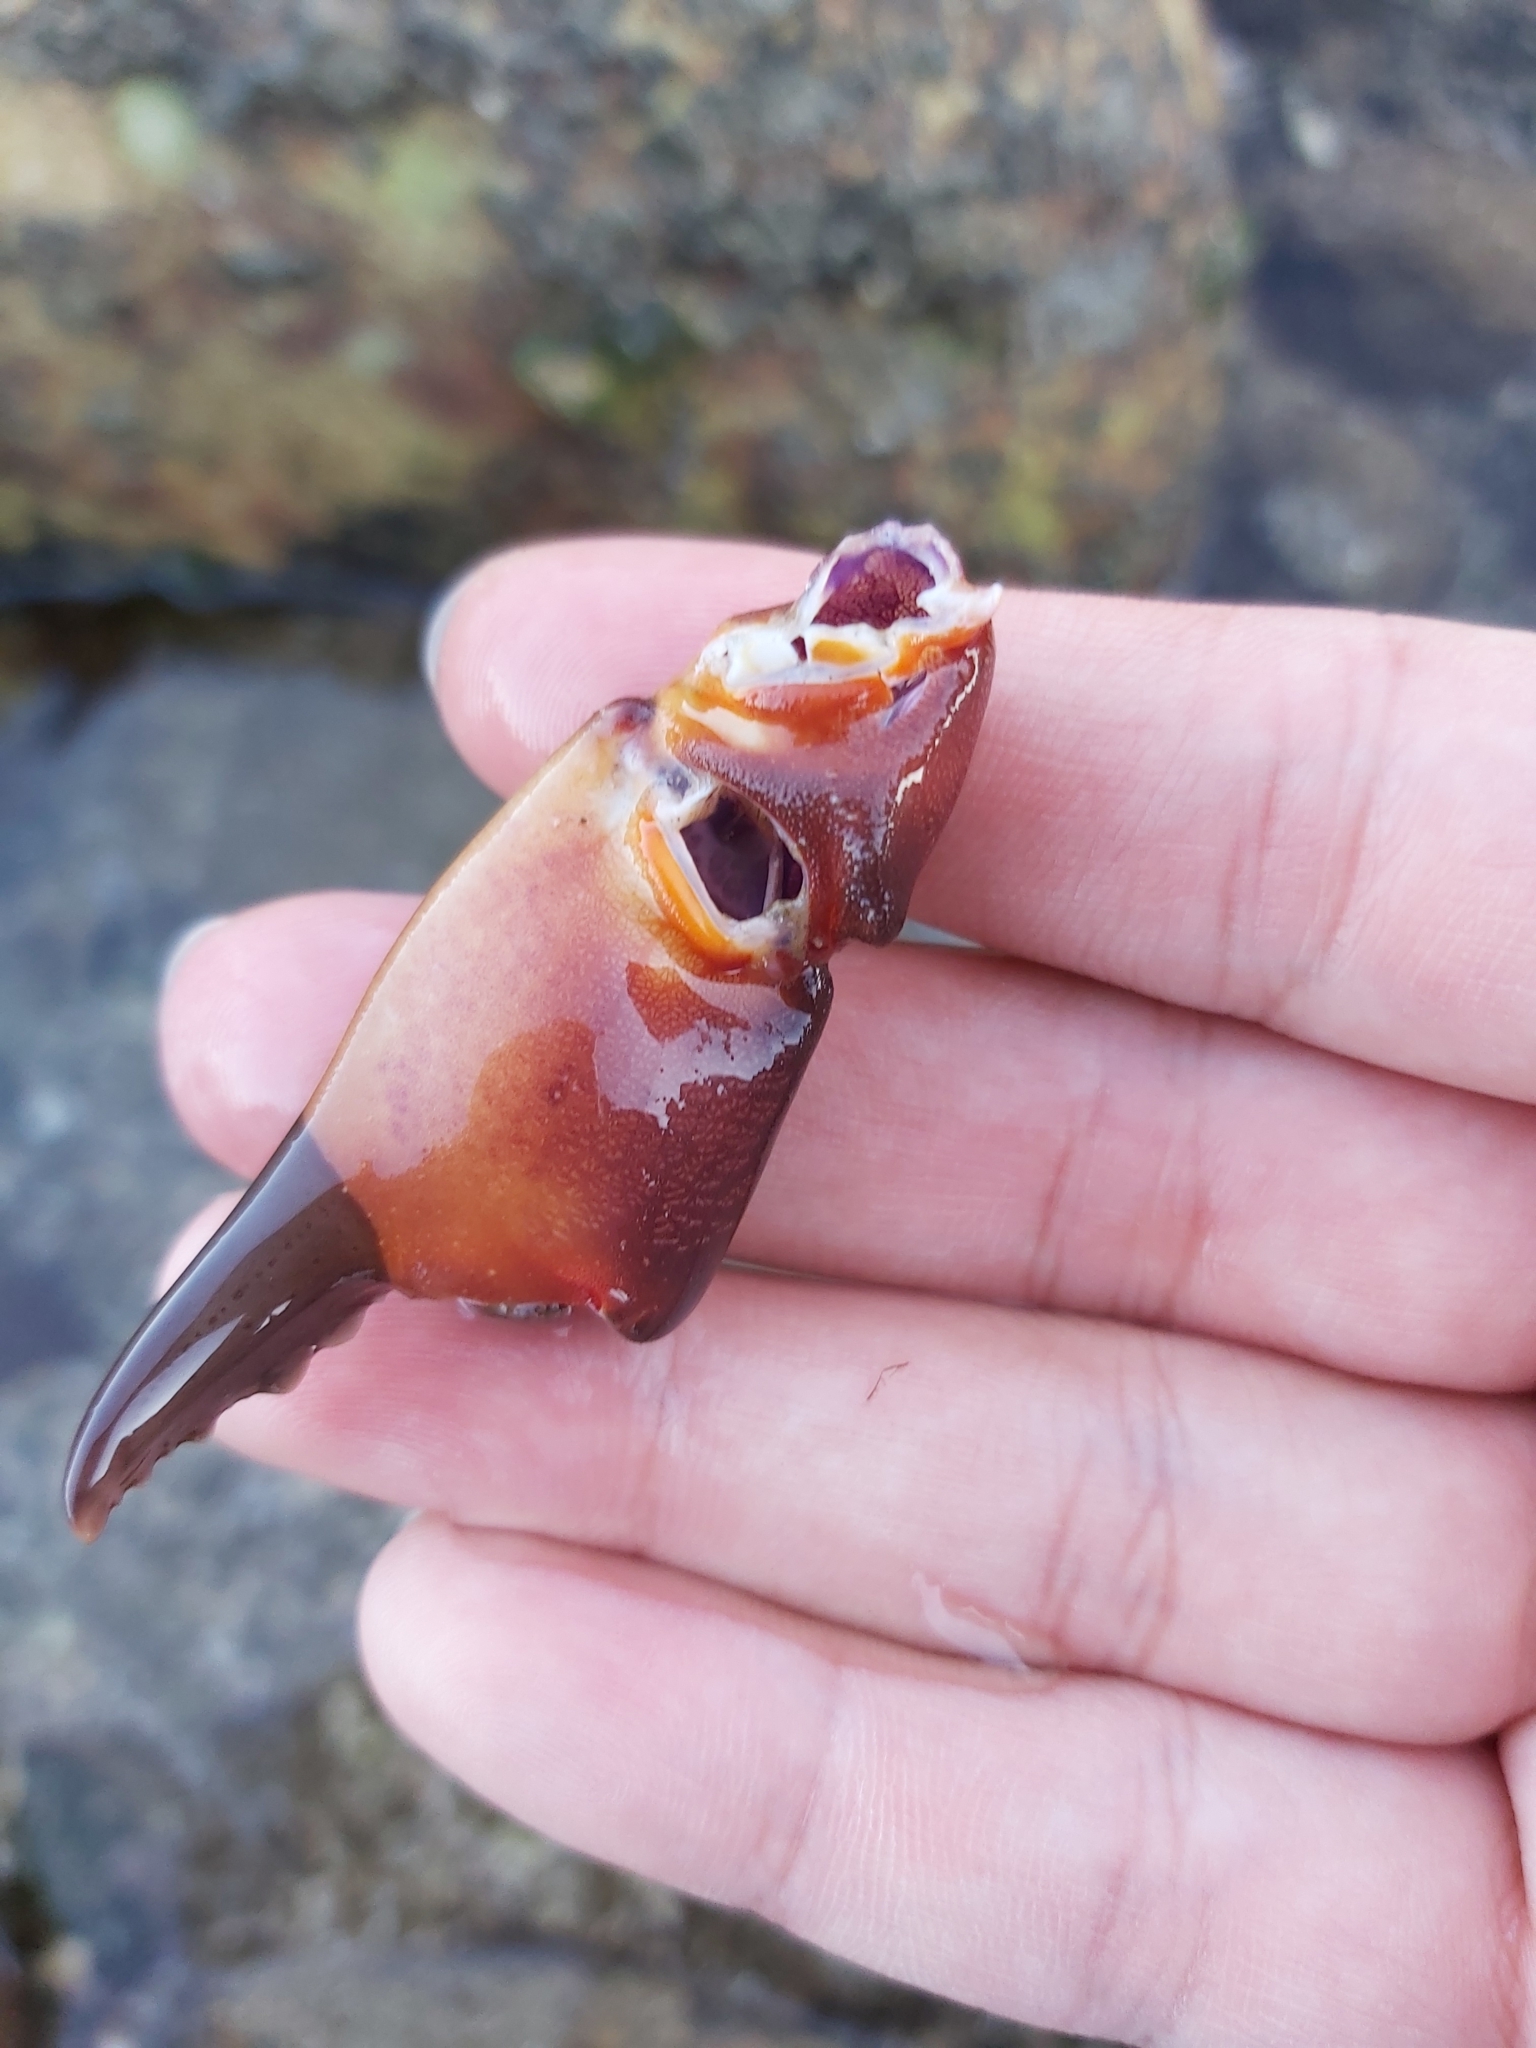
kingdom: Animalia
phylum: Arthropoda
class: Malacostraca
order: Decapoda
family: Oziidae
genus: Ozius
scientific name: Ozius truncatus
